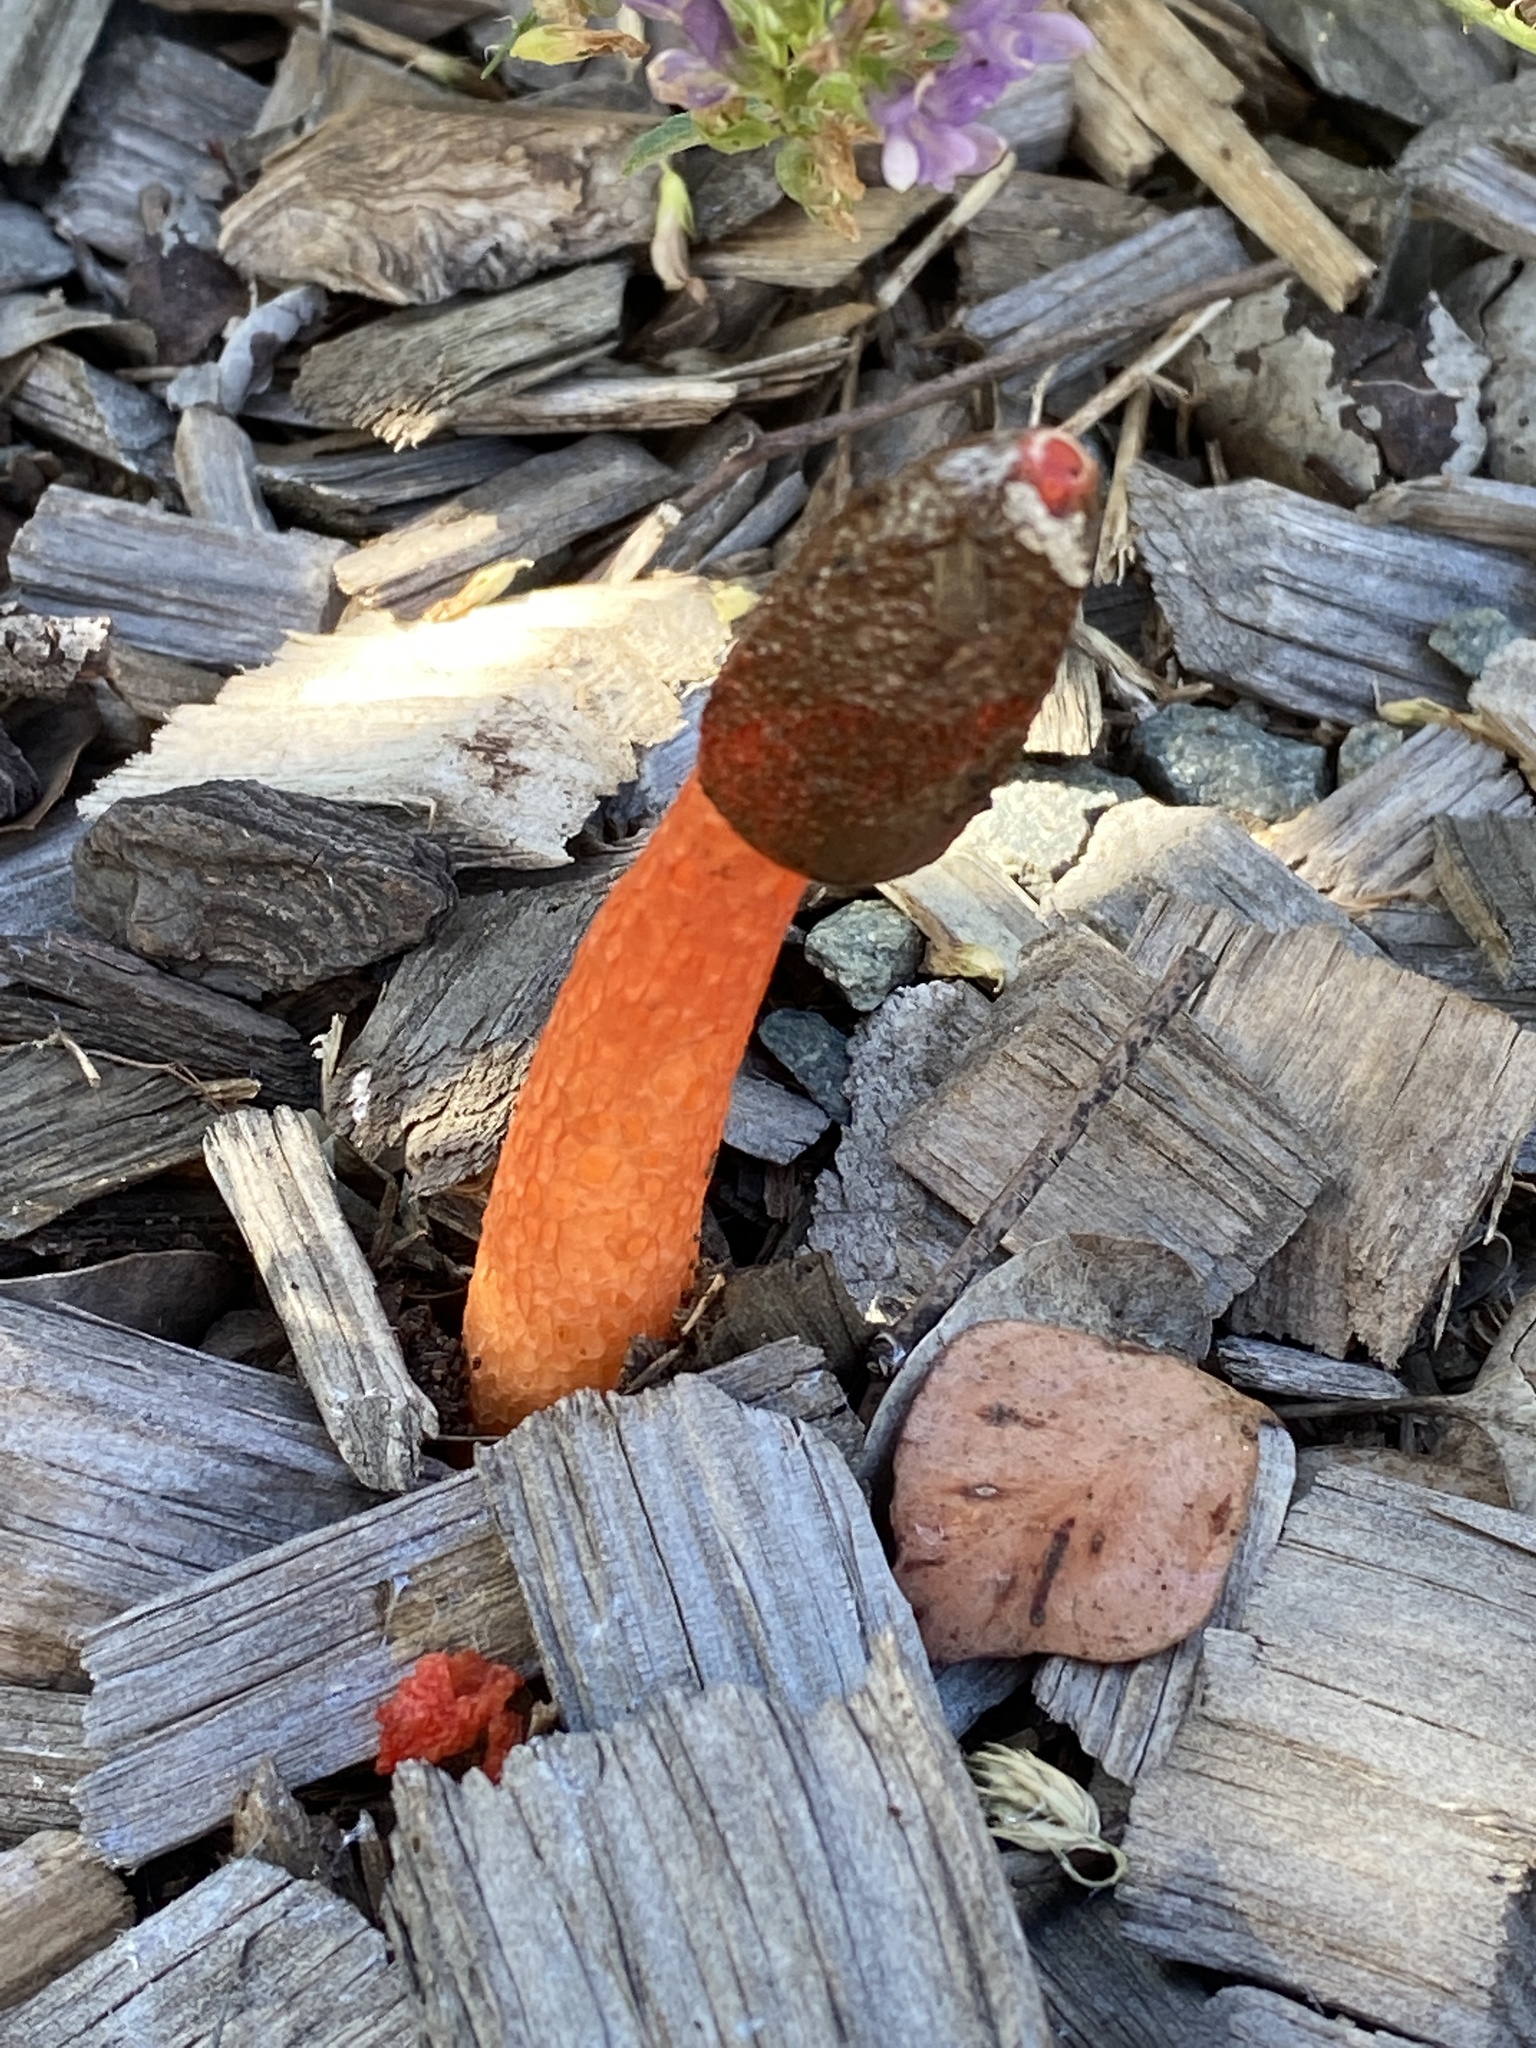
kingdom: Fungi
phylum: Basidiomycota
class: Agaricomycetes
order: Phallales
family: Phallaceae
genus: Phallus
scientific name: Phallus rubicundus
